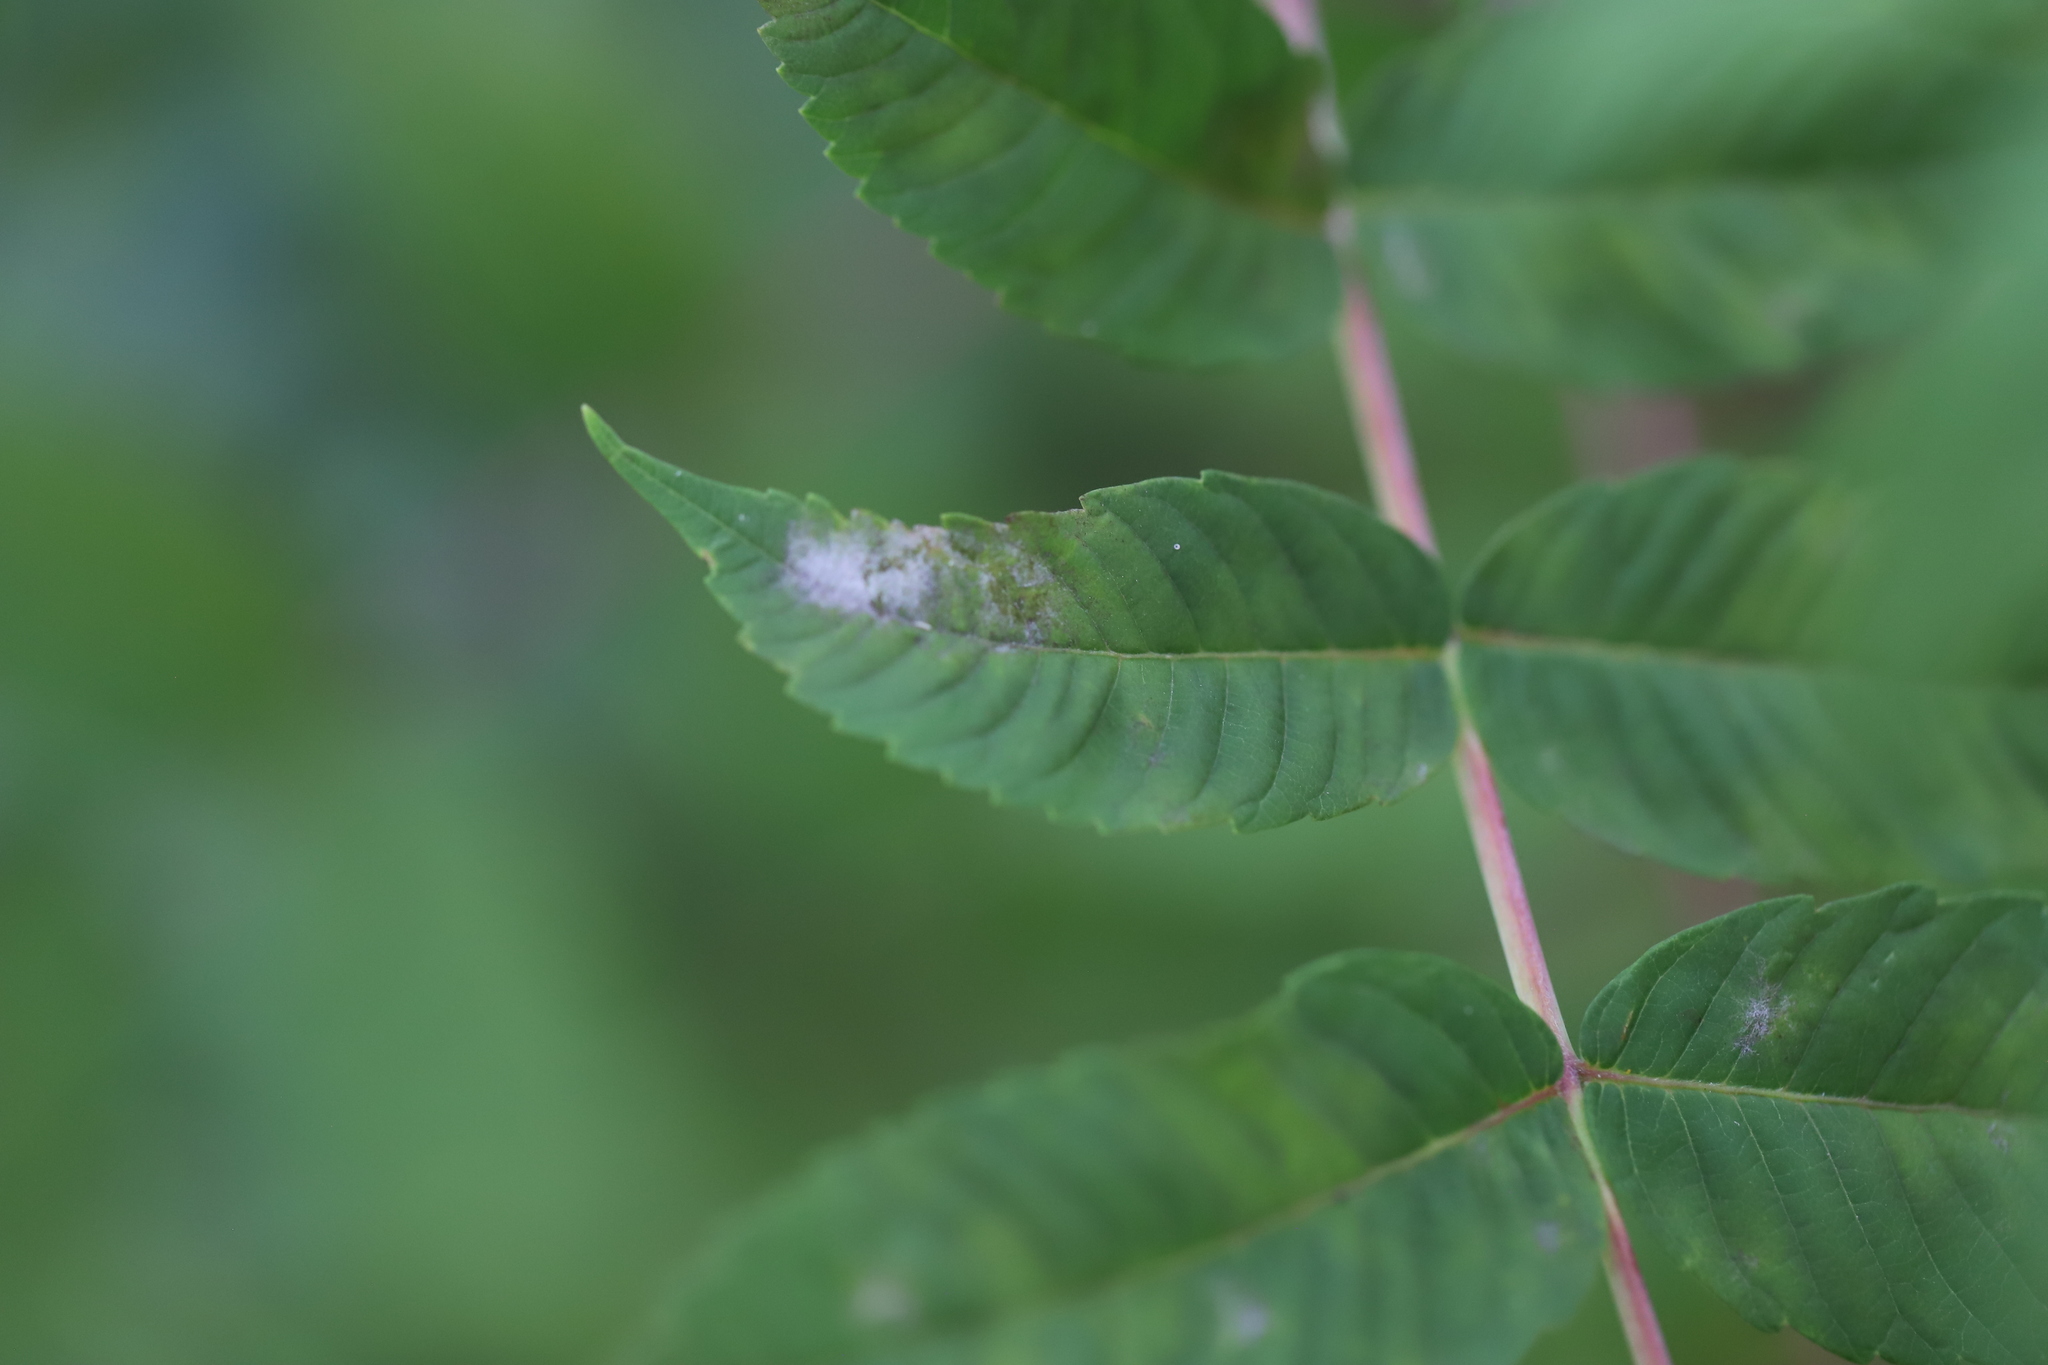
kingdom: Fungi
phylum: Ascomycota
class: Leotiomycetes
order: Helotiales
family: Erysiphaceae
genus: Podosphaera
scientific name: Podosphaera pruinosa
